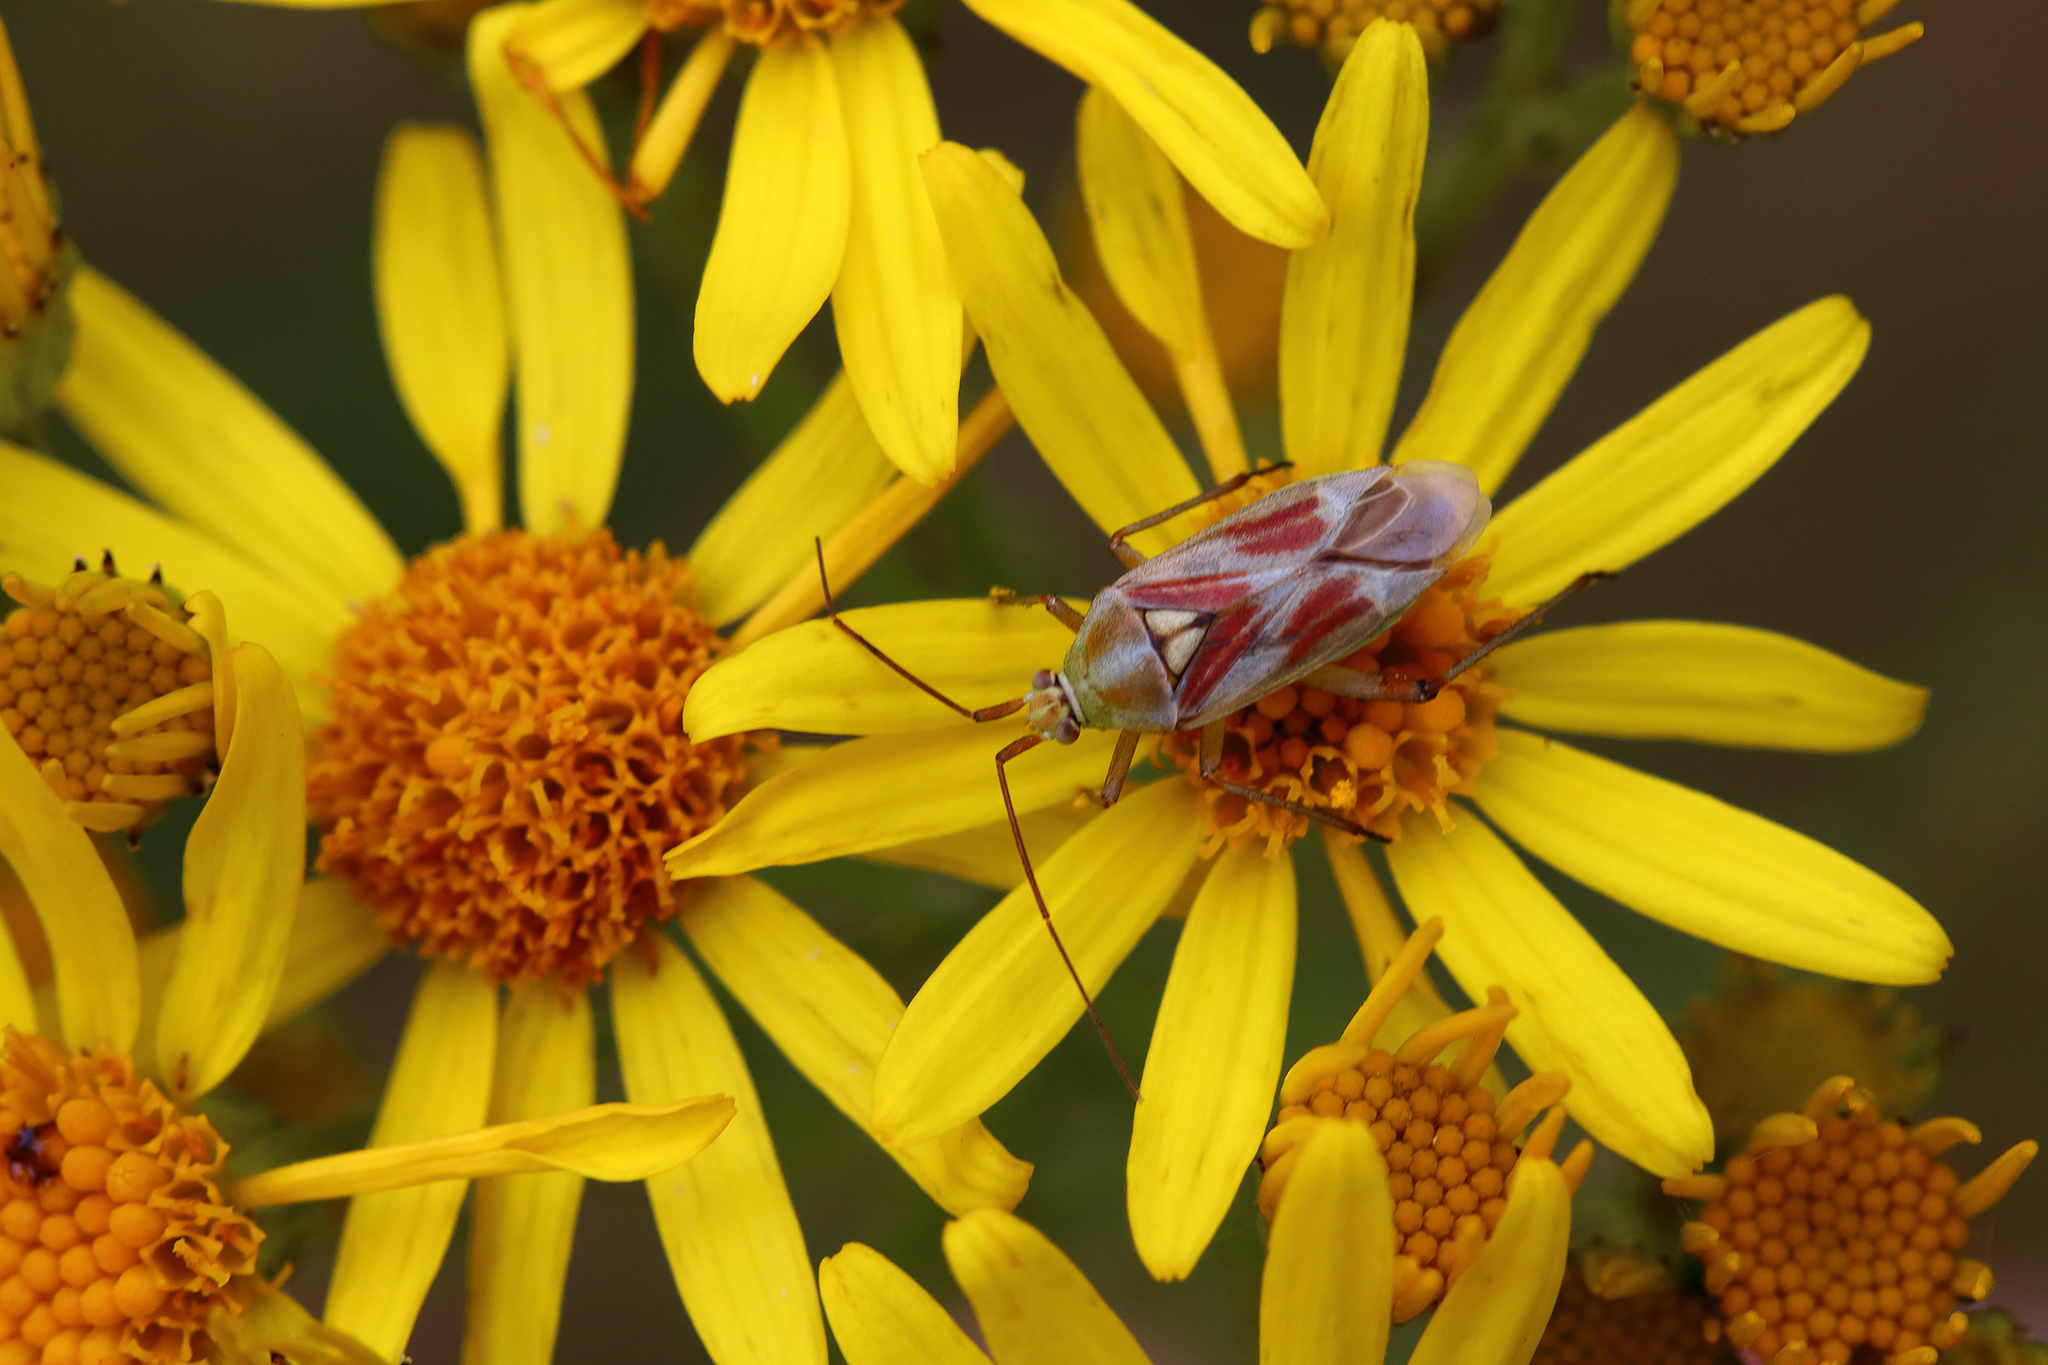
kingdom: Animalia
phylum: Arthropoda
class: Insecta
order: Hemiptera
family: Miridae
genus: Calocoris
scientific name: Calocoris roseomaculatus
